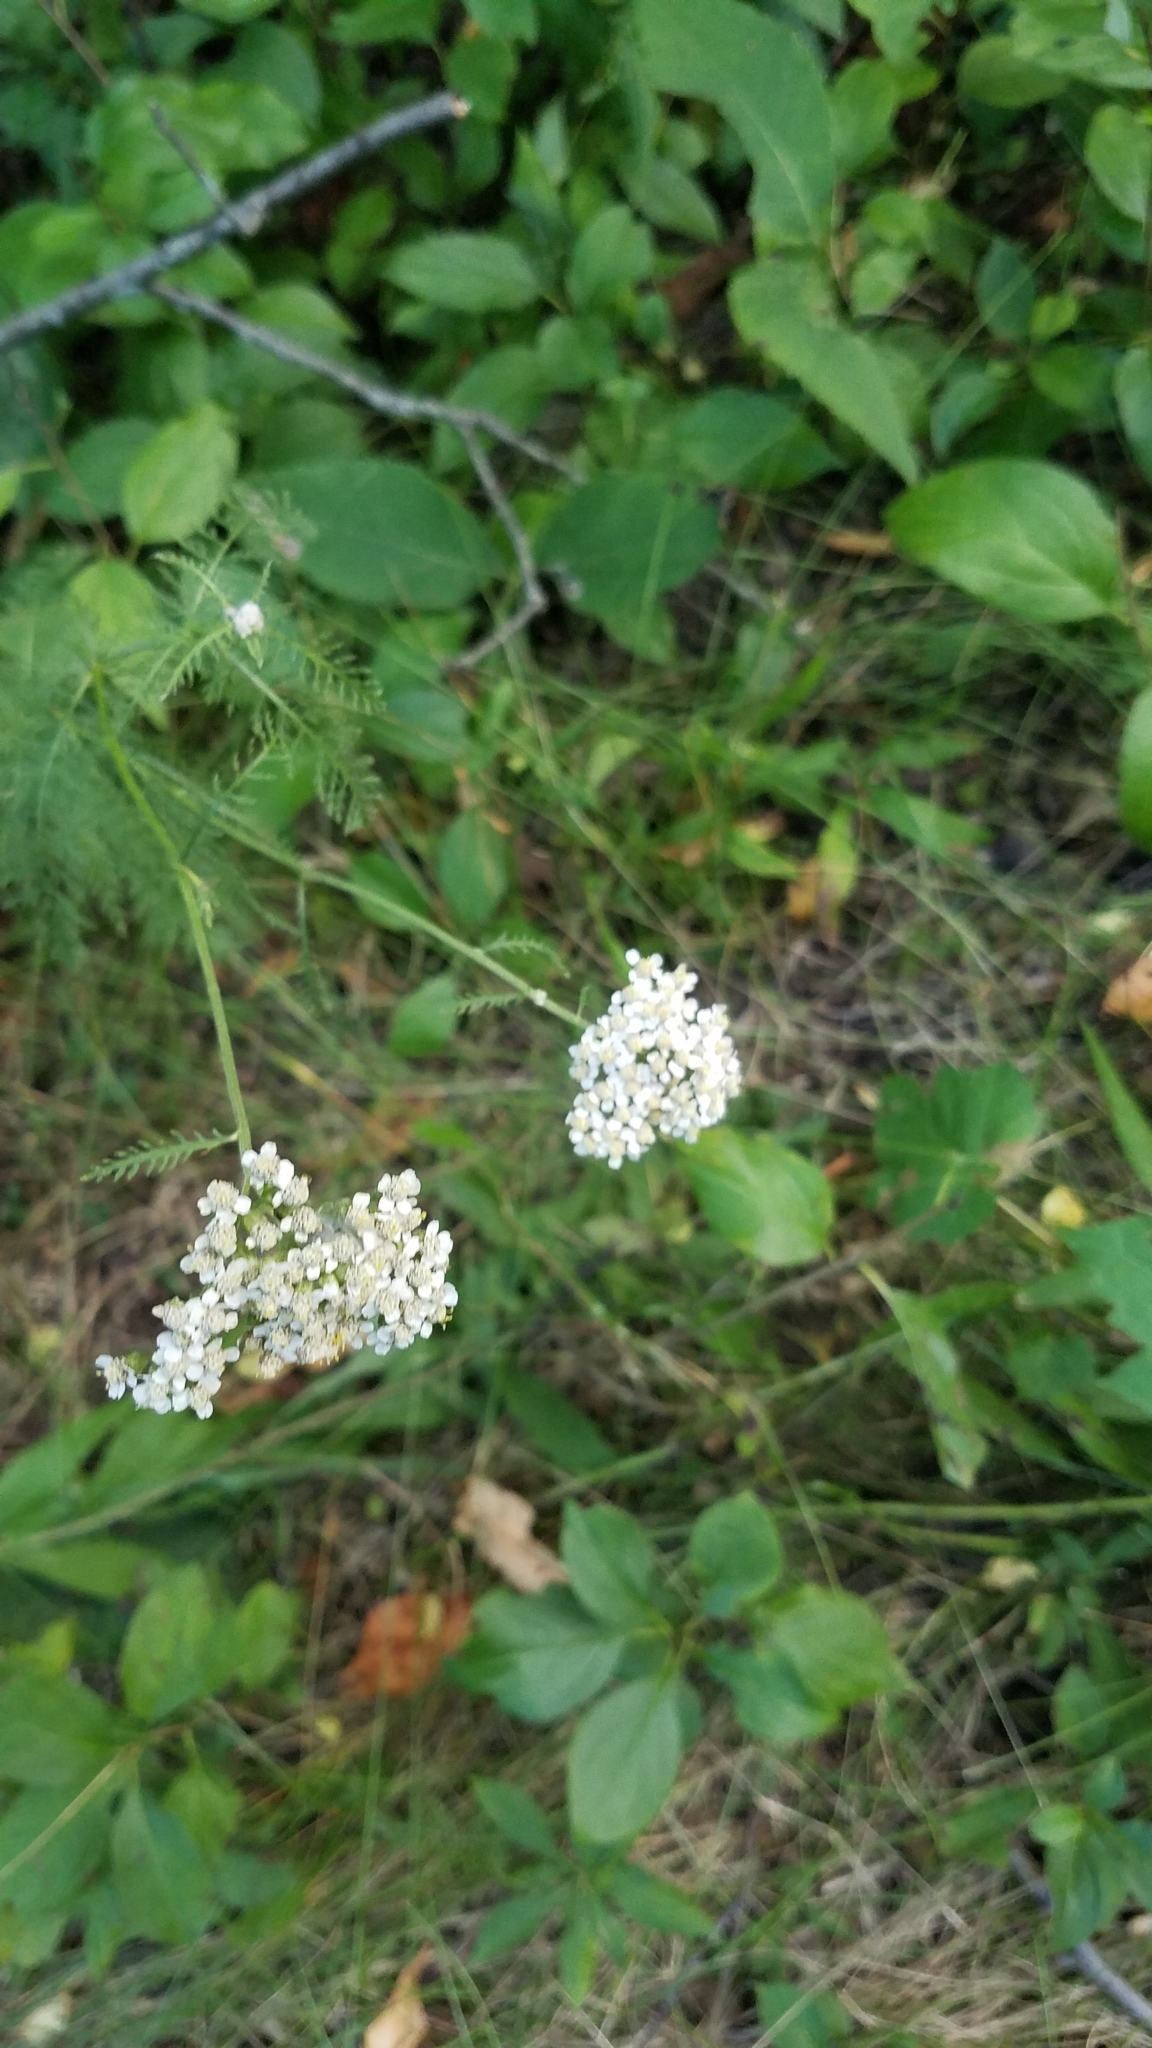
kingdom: Plantae
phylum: Tracheophyta
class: Magnoliopsida
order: Asterales
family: Asteraceae
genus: Achillea
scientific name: Achillea millefolium
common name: Yarrow
